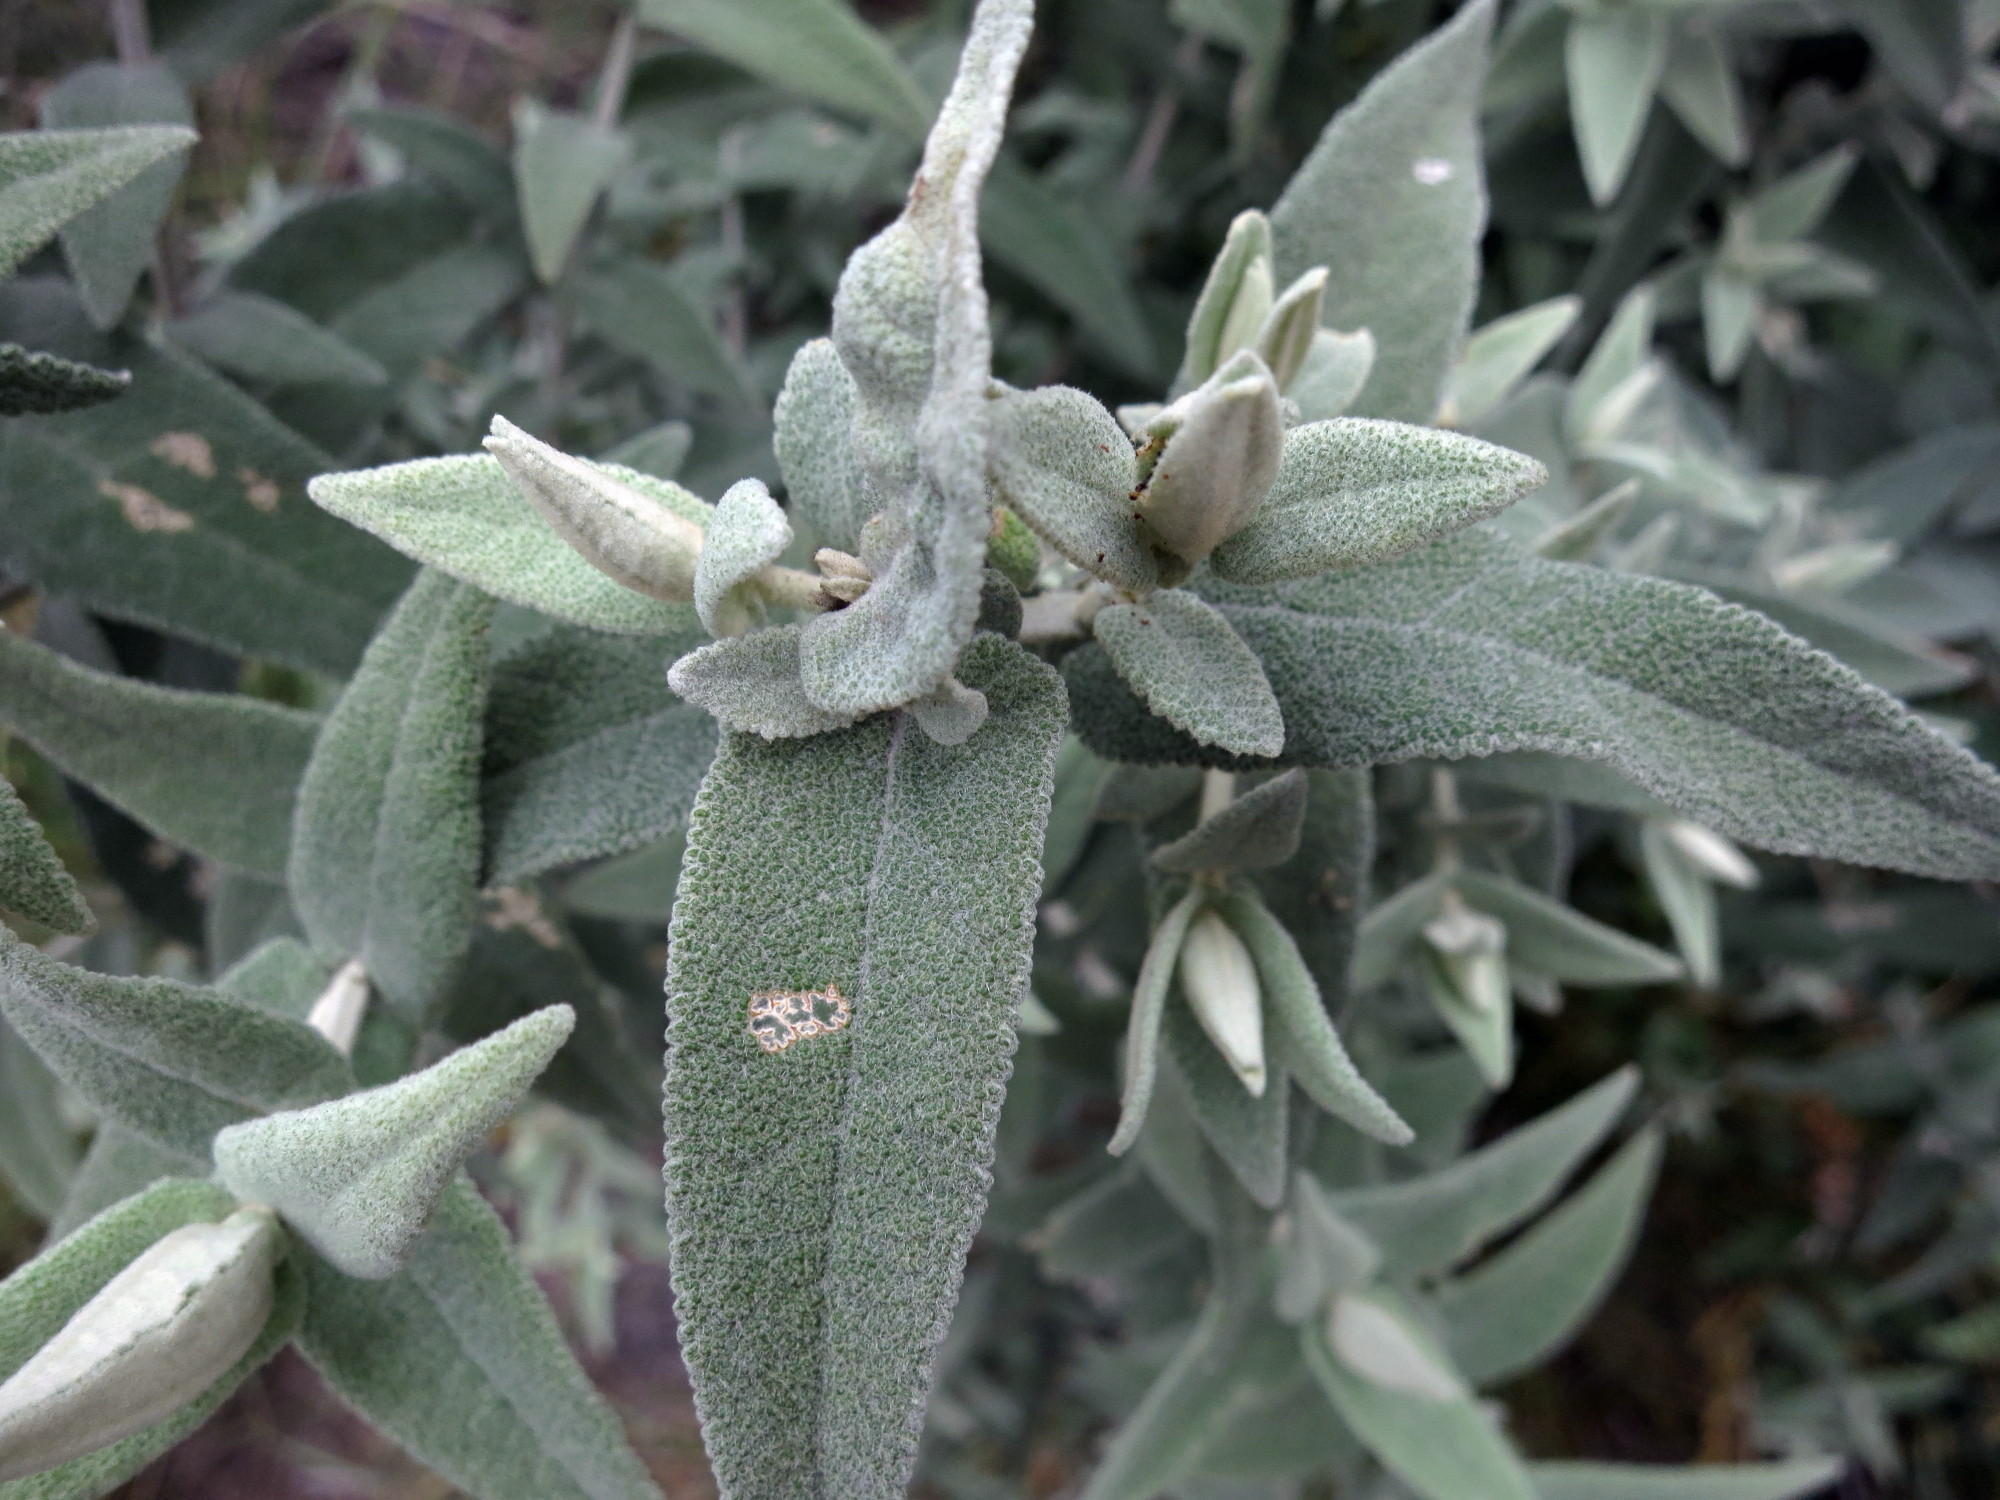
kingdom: Plantae
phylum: Tracheophyta
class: Magnoliopsida
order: Lamiales
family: Scrophulariaceae
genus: Buddleja
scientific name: Buddleja salviifolia
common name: Sagewood
